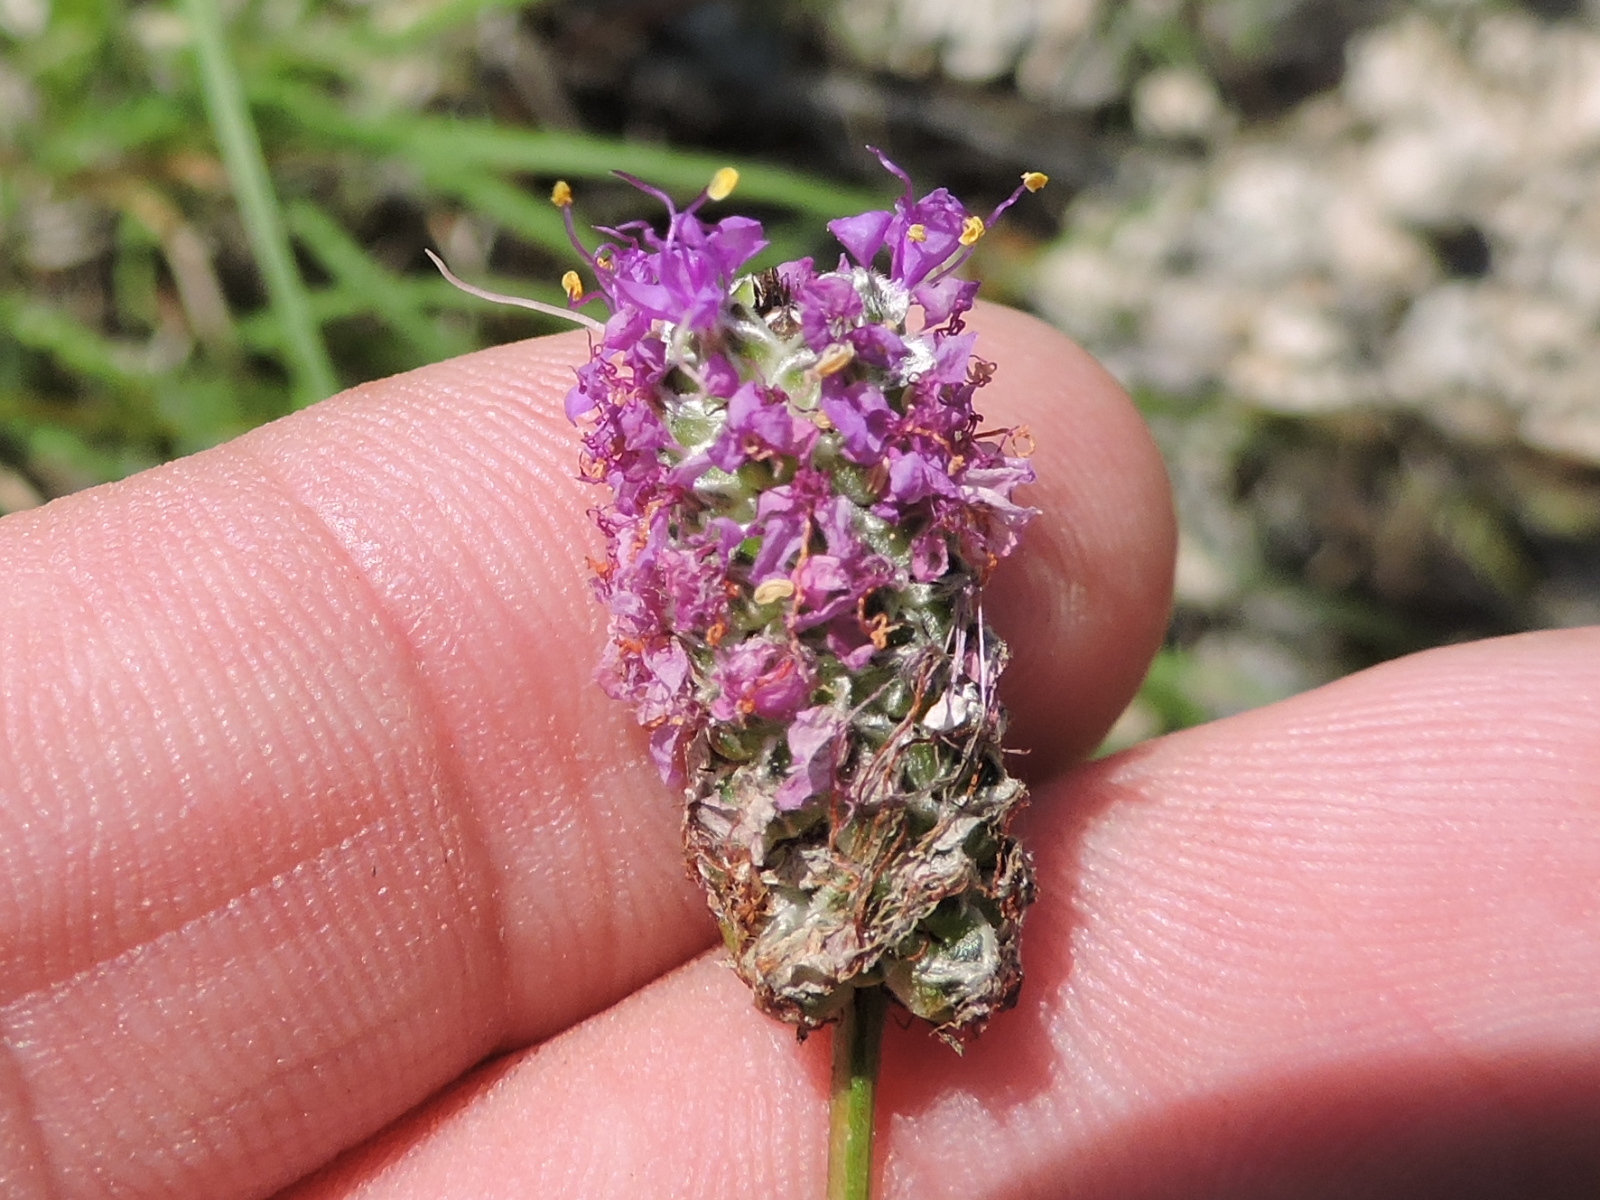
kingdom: Plantae
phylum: Tracheophyta
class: Magnoliopsida
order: Fabales
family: Fabaceae
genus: Dalea
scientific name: Dalea tenuis
